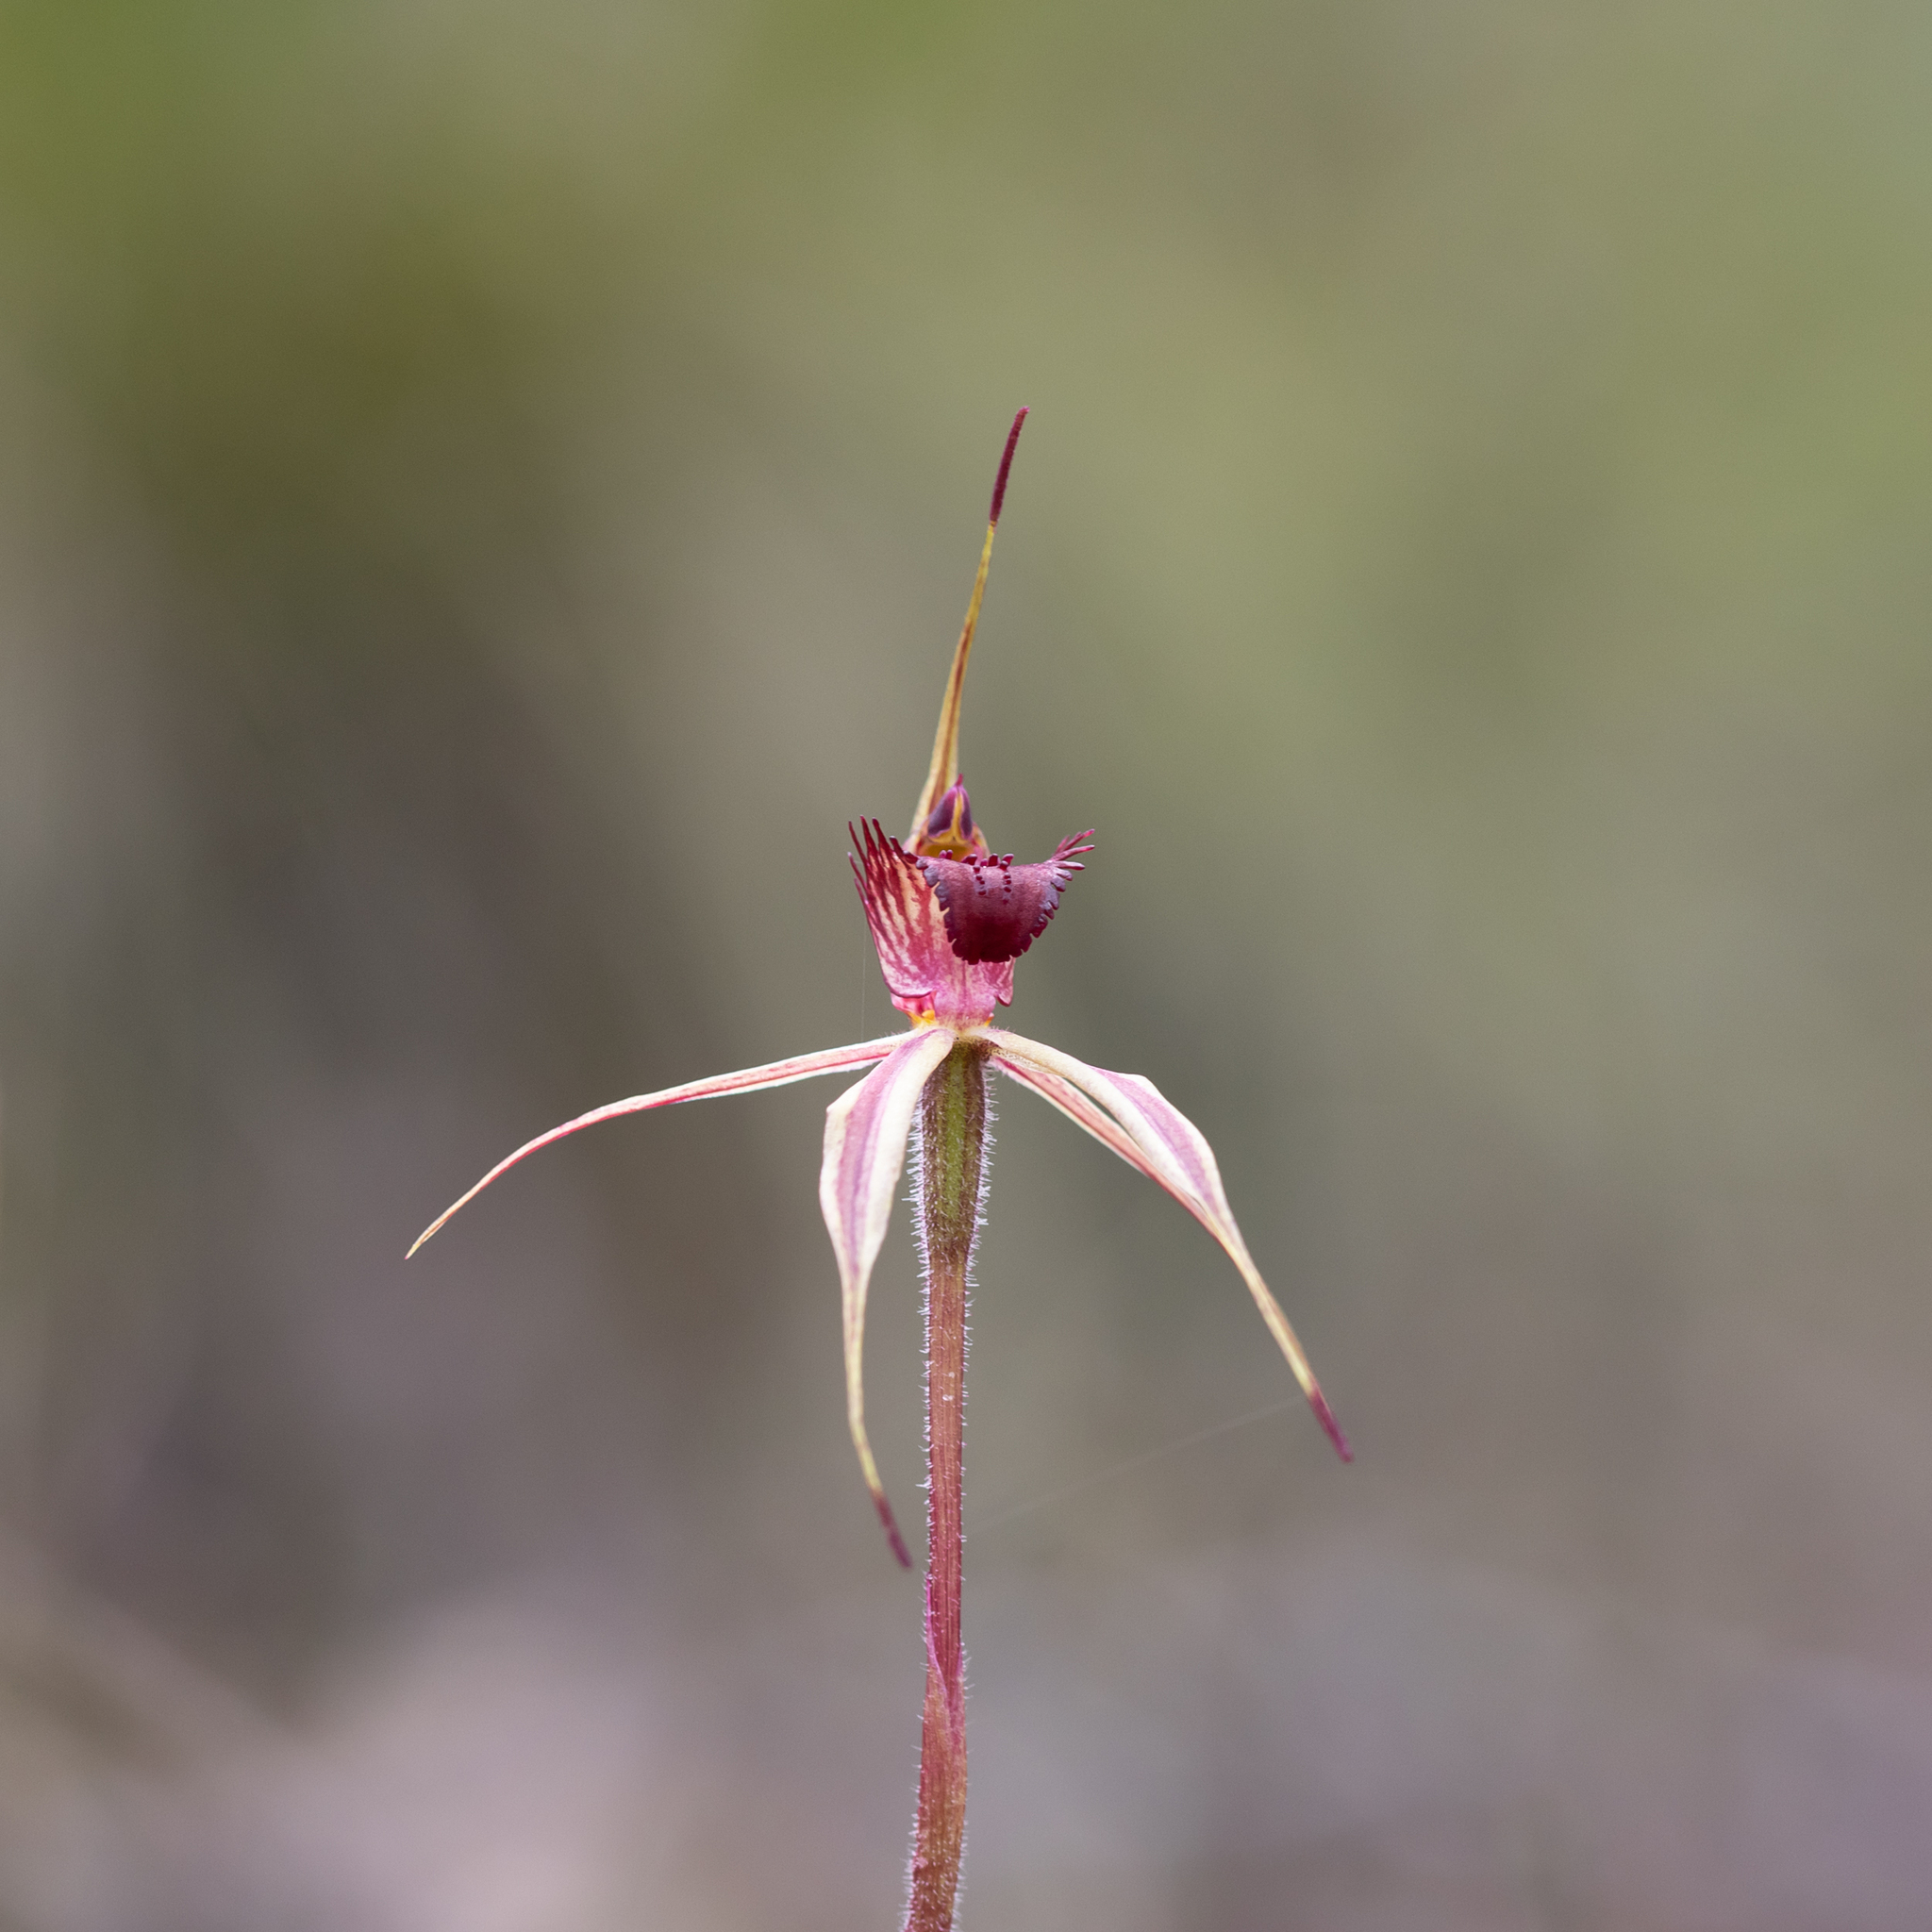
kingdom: Plantae
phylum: Tracheophyta
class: Liliopsida
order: Asparagales
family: Orchidaceae
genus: Caladenia
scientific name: Caladenia reticulata
